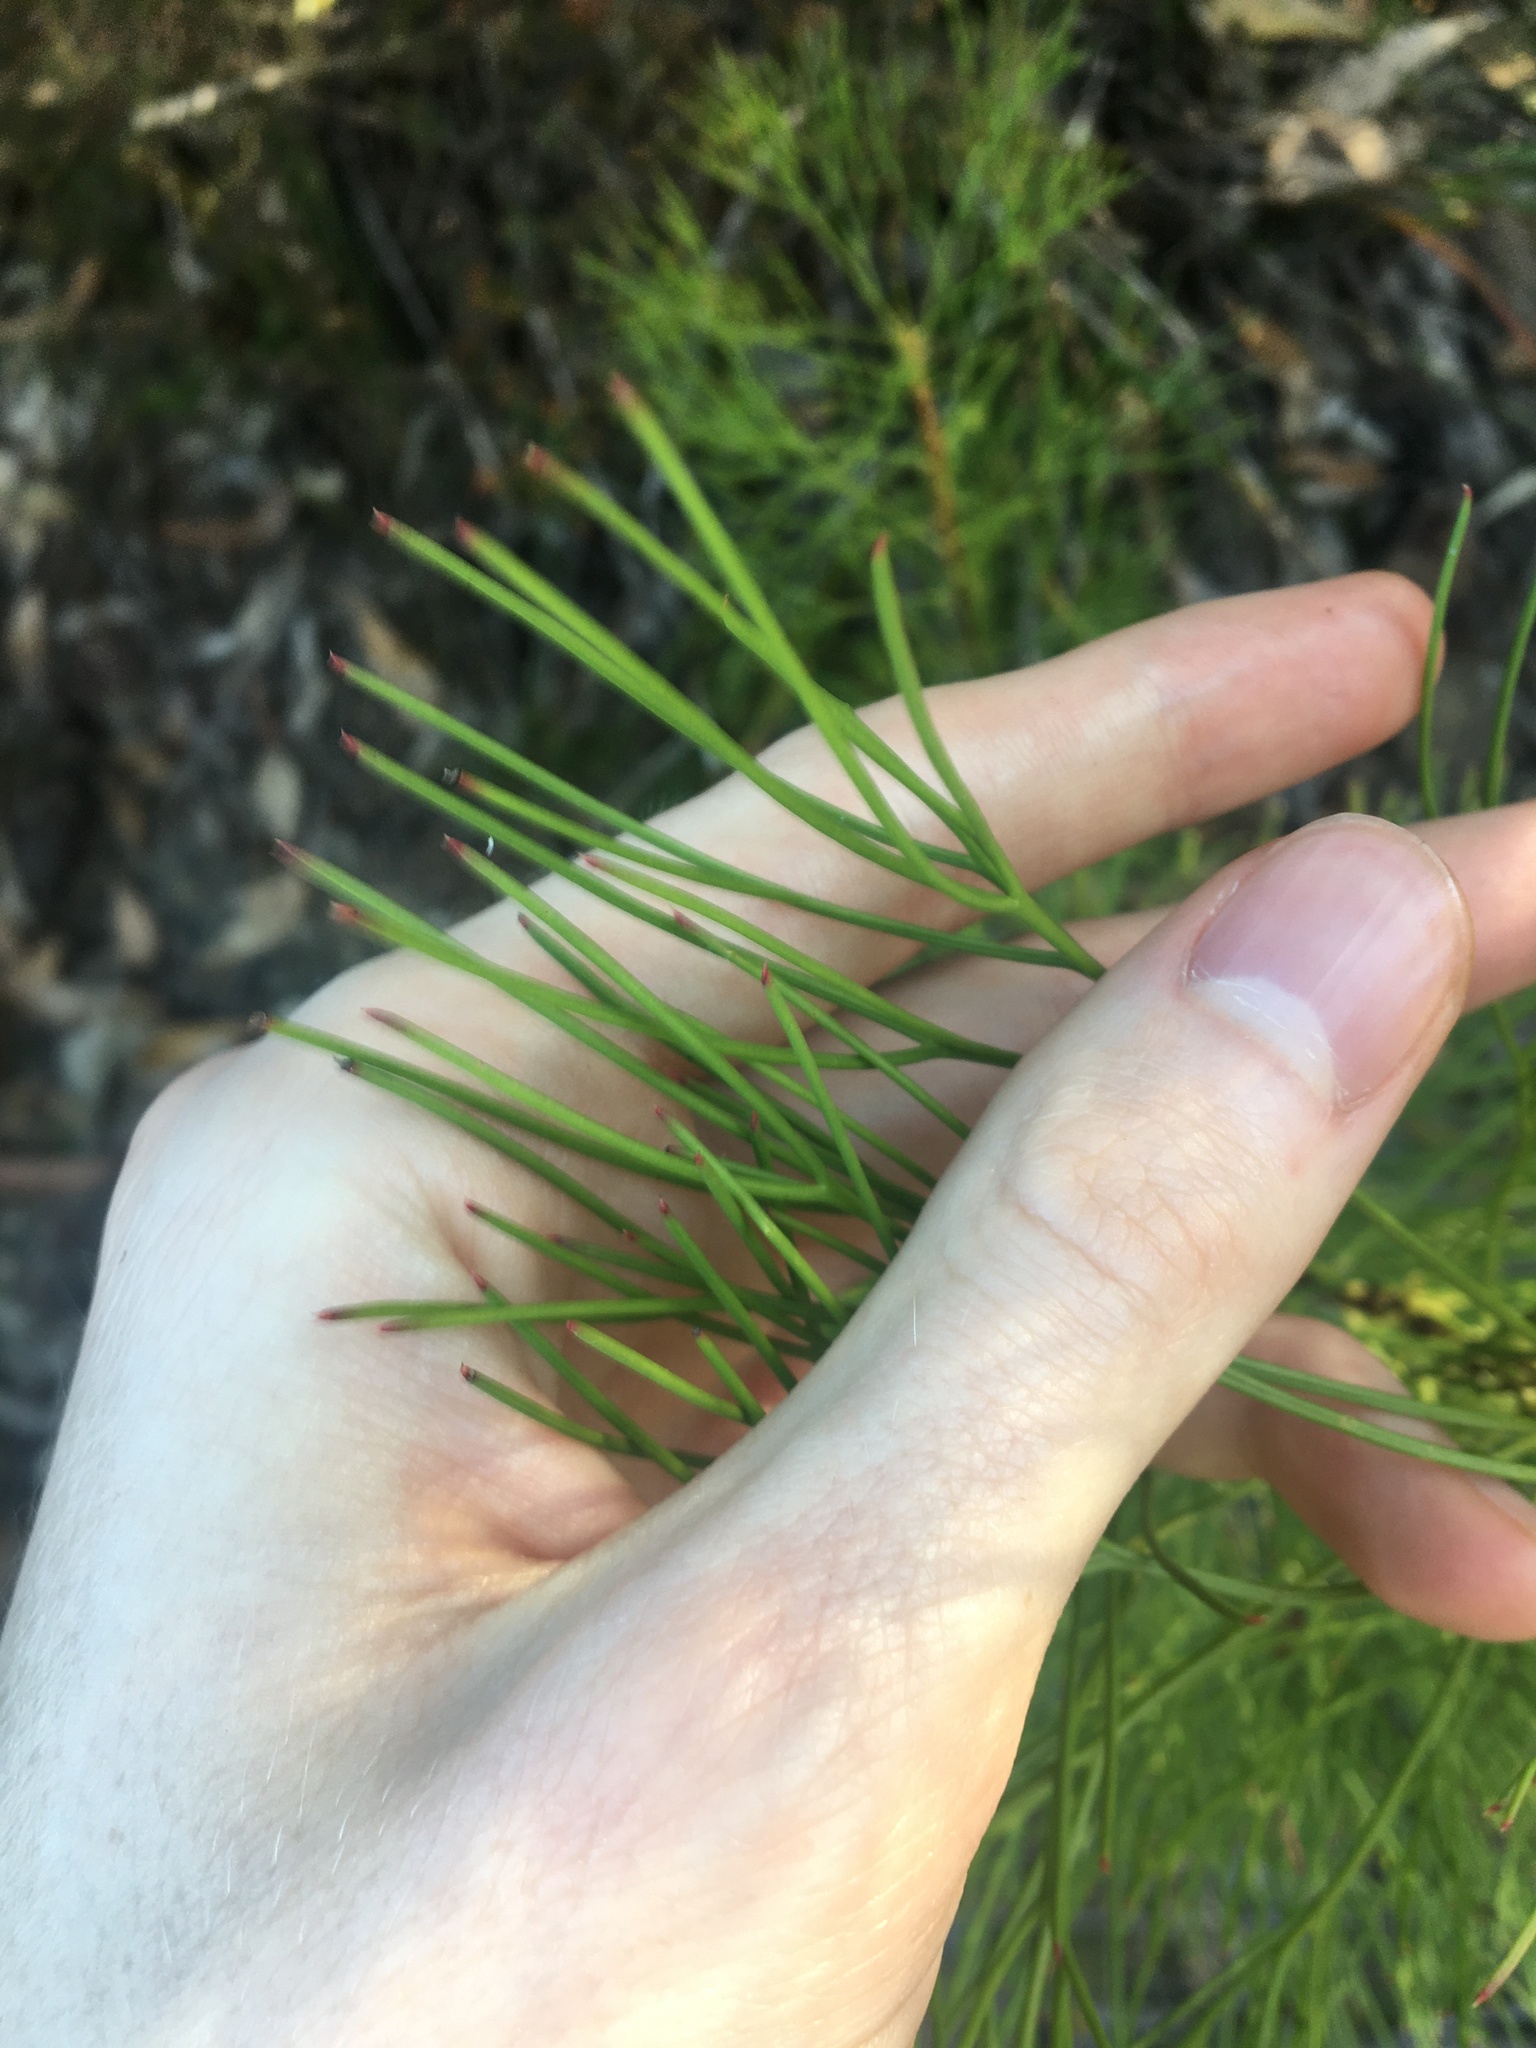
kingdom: Plantae
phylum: Tracheophyta
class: Magnoliopsida
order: Proteales
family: Proteaceae
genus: Isopogon
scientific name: Isopogon anethifolius
